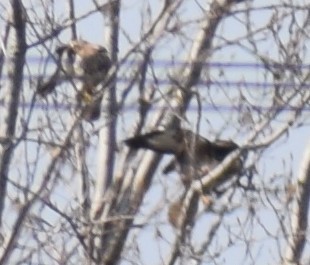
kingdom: Animalia
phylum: Chordata
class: Aves
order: Accipitriformes
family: Accipitridae
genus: Buteo
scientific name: Buteo buteo
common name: Common buzzard
